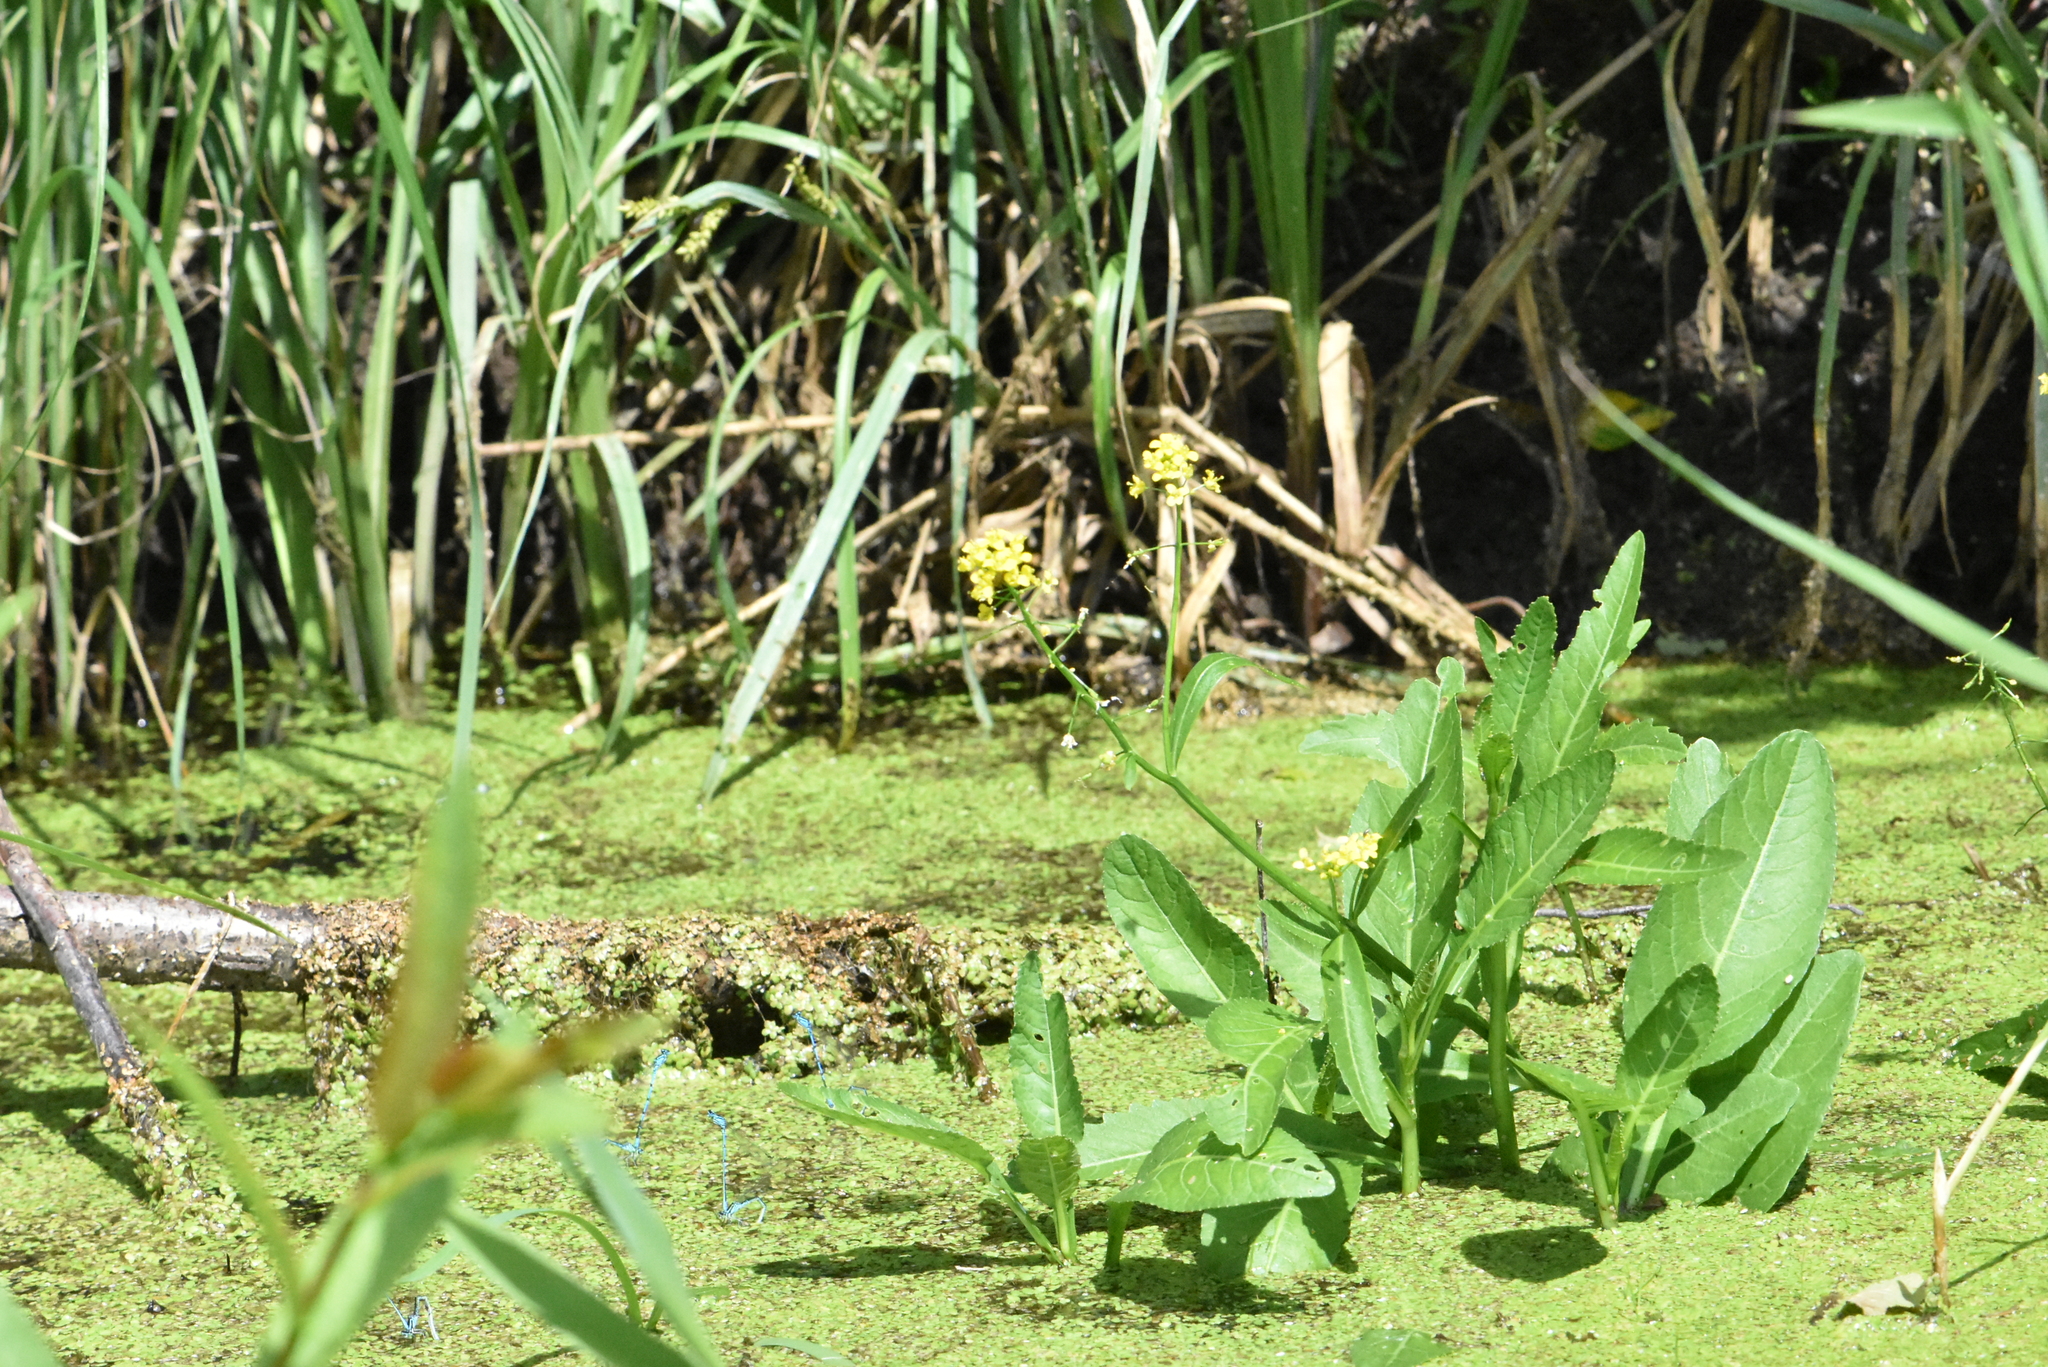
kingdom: Plantae
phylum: Tracheophyta
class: Magnoliopsida
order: Brassicales
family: Brassicaceae
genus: Rorippa
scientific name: Rorippa amphibia
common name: Great yellow-cress
